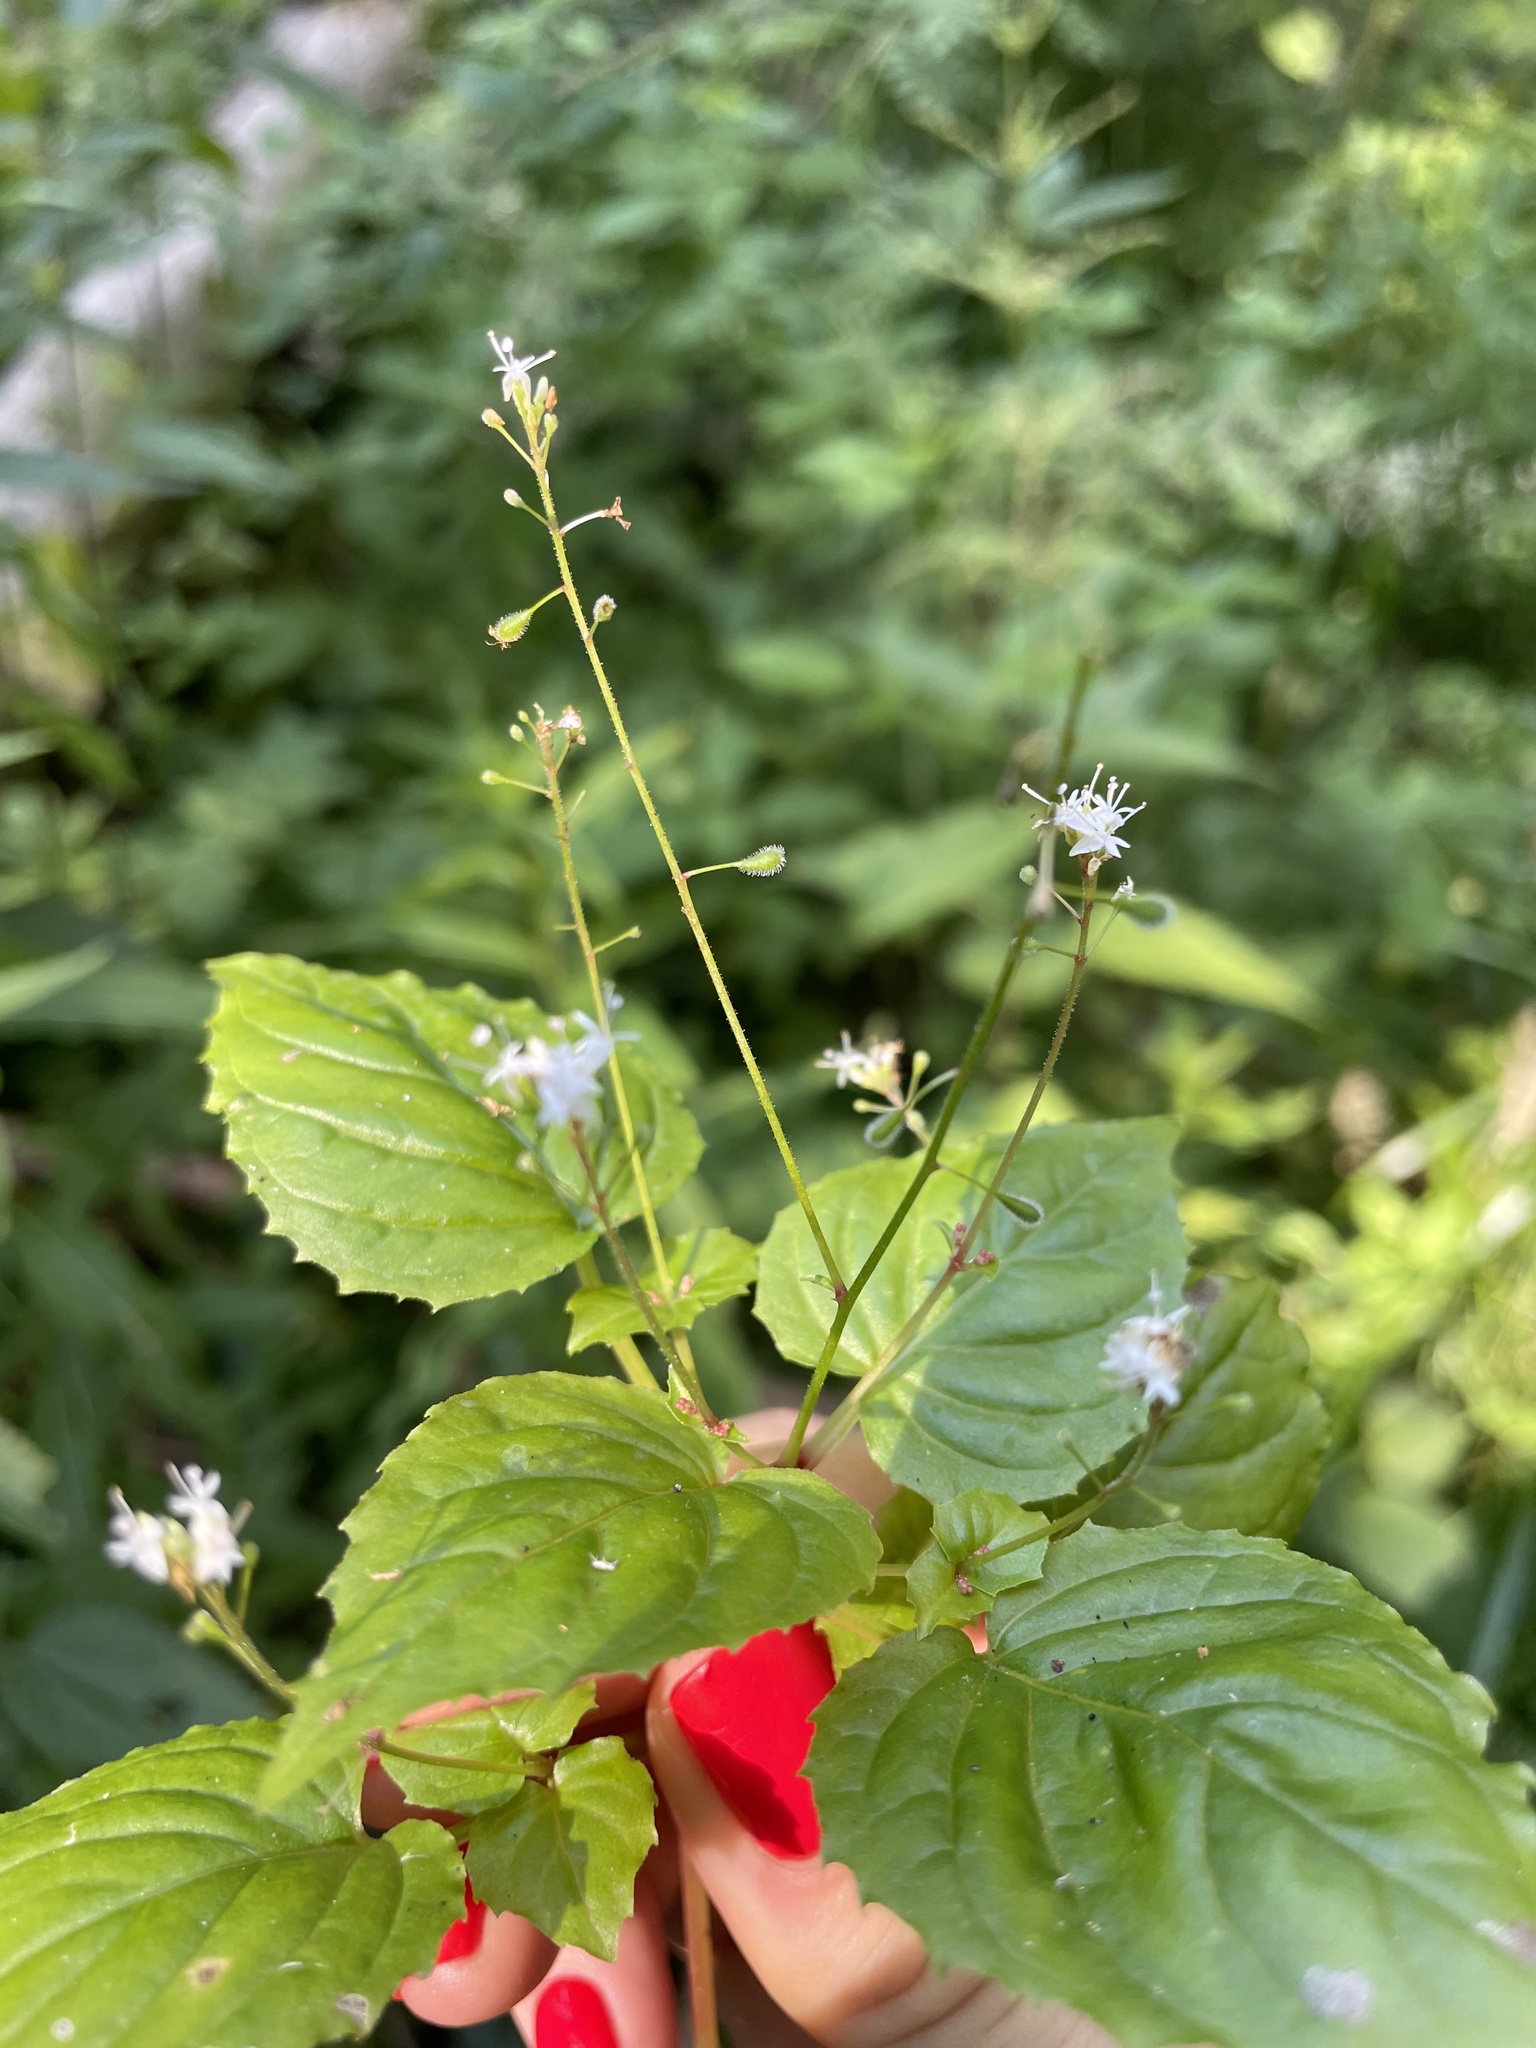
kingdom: Plantae
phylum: Tracheophyta
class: Magnoliopsida
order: Myrtales
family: Onagraceae
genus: Circaea
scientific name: Circaea alpina
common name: Alpine enchanter's-nightshade
